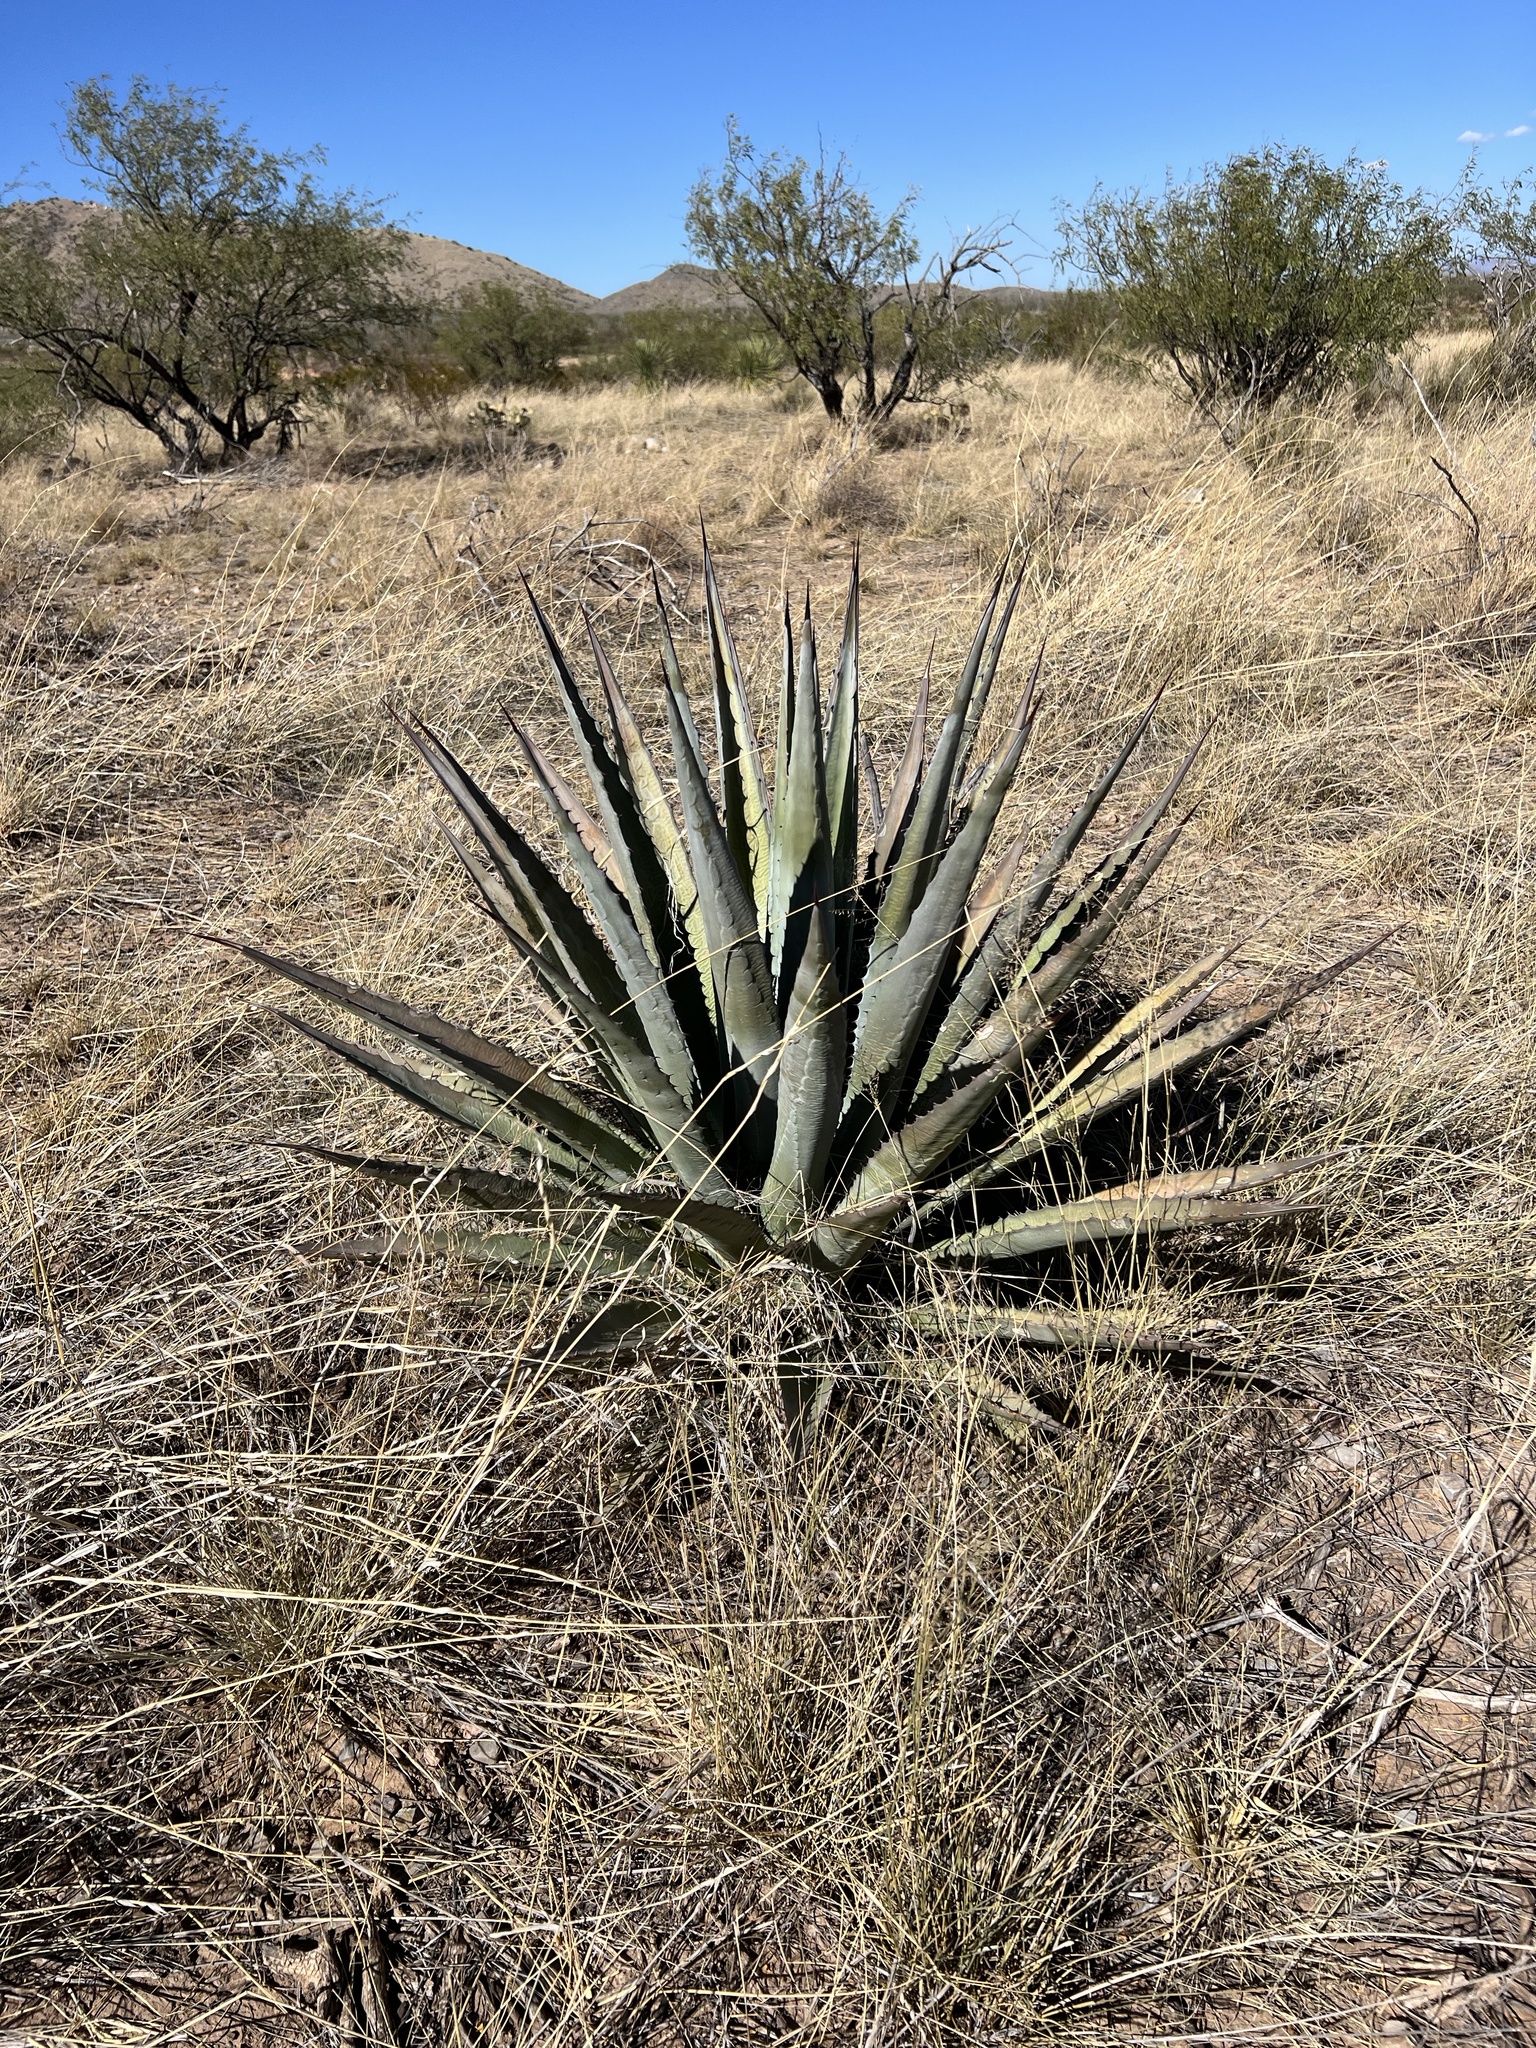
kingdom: Plantae
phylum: Tracheophyta
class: Liliopsida
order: Asparagales
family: Asparagaceae
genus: Agave
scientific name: Agave palmeri
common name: Palmer agave
